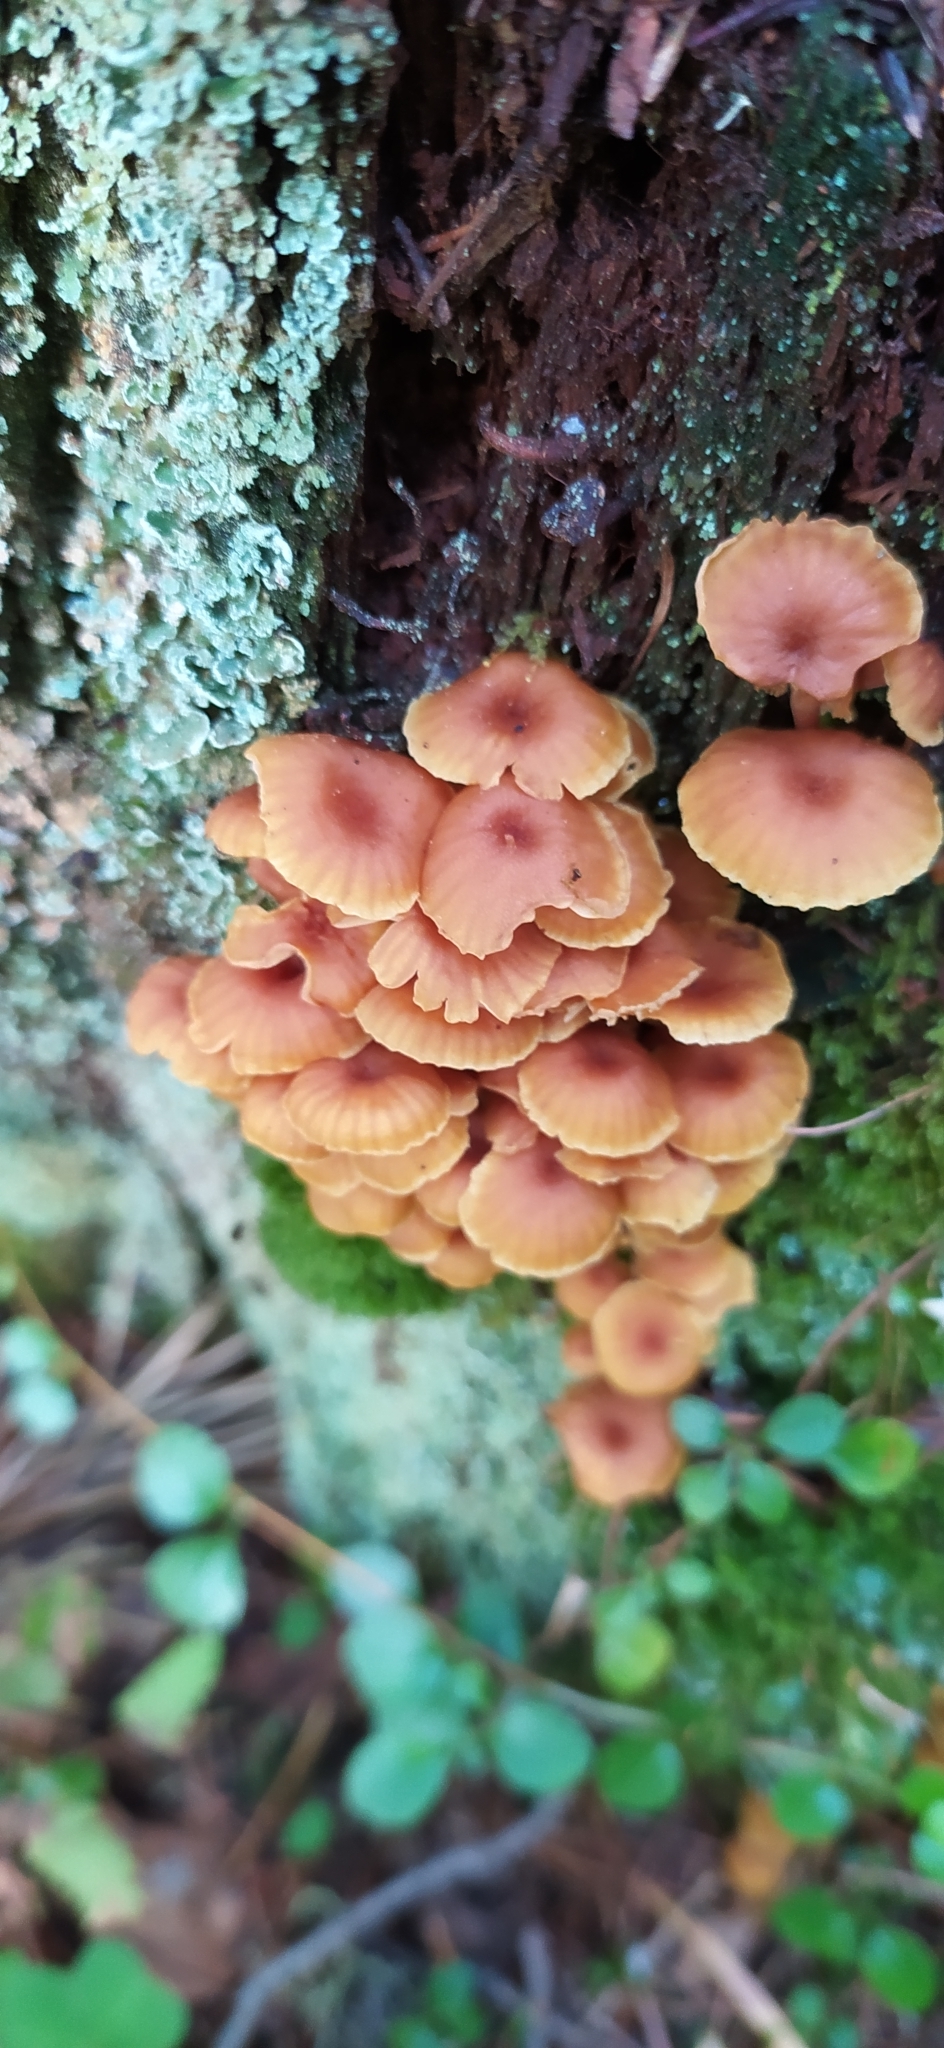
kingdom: Fungi
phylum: Basidiomycota
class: Agaricomycetes
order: Agaricales
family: Mycenaceae
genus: Xeromphalina
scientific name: Xeromphalina campanella
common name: Pinewood gingertail
